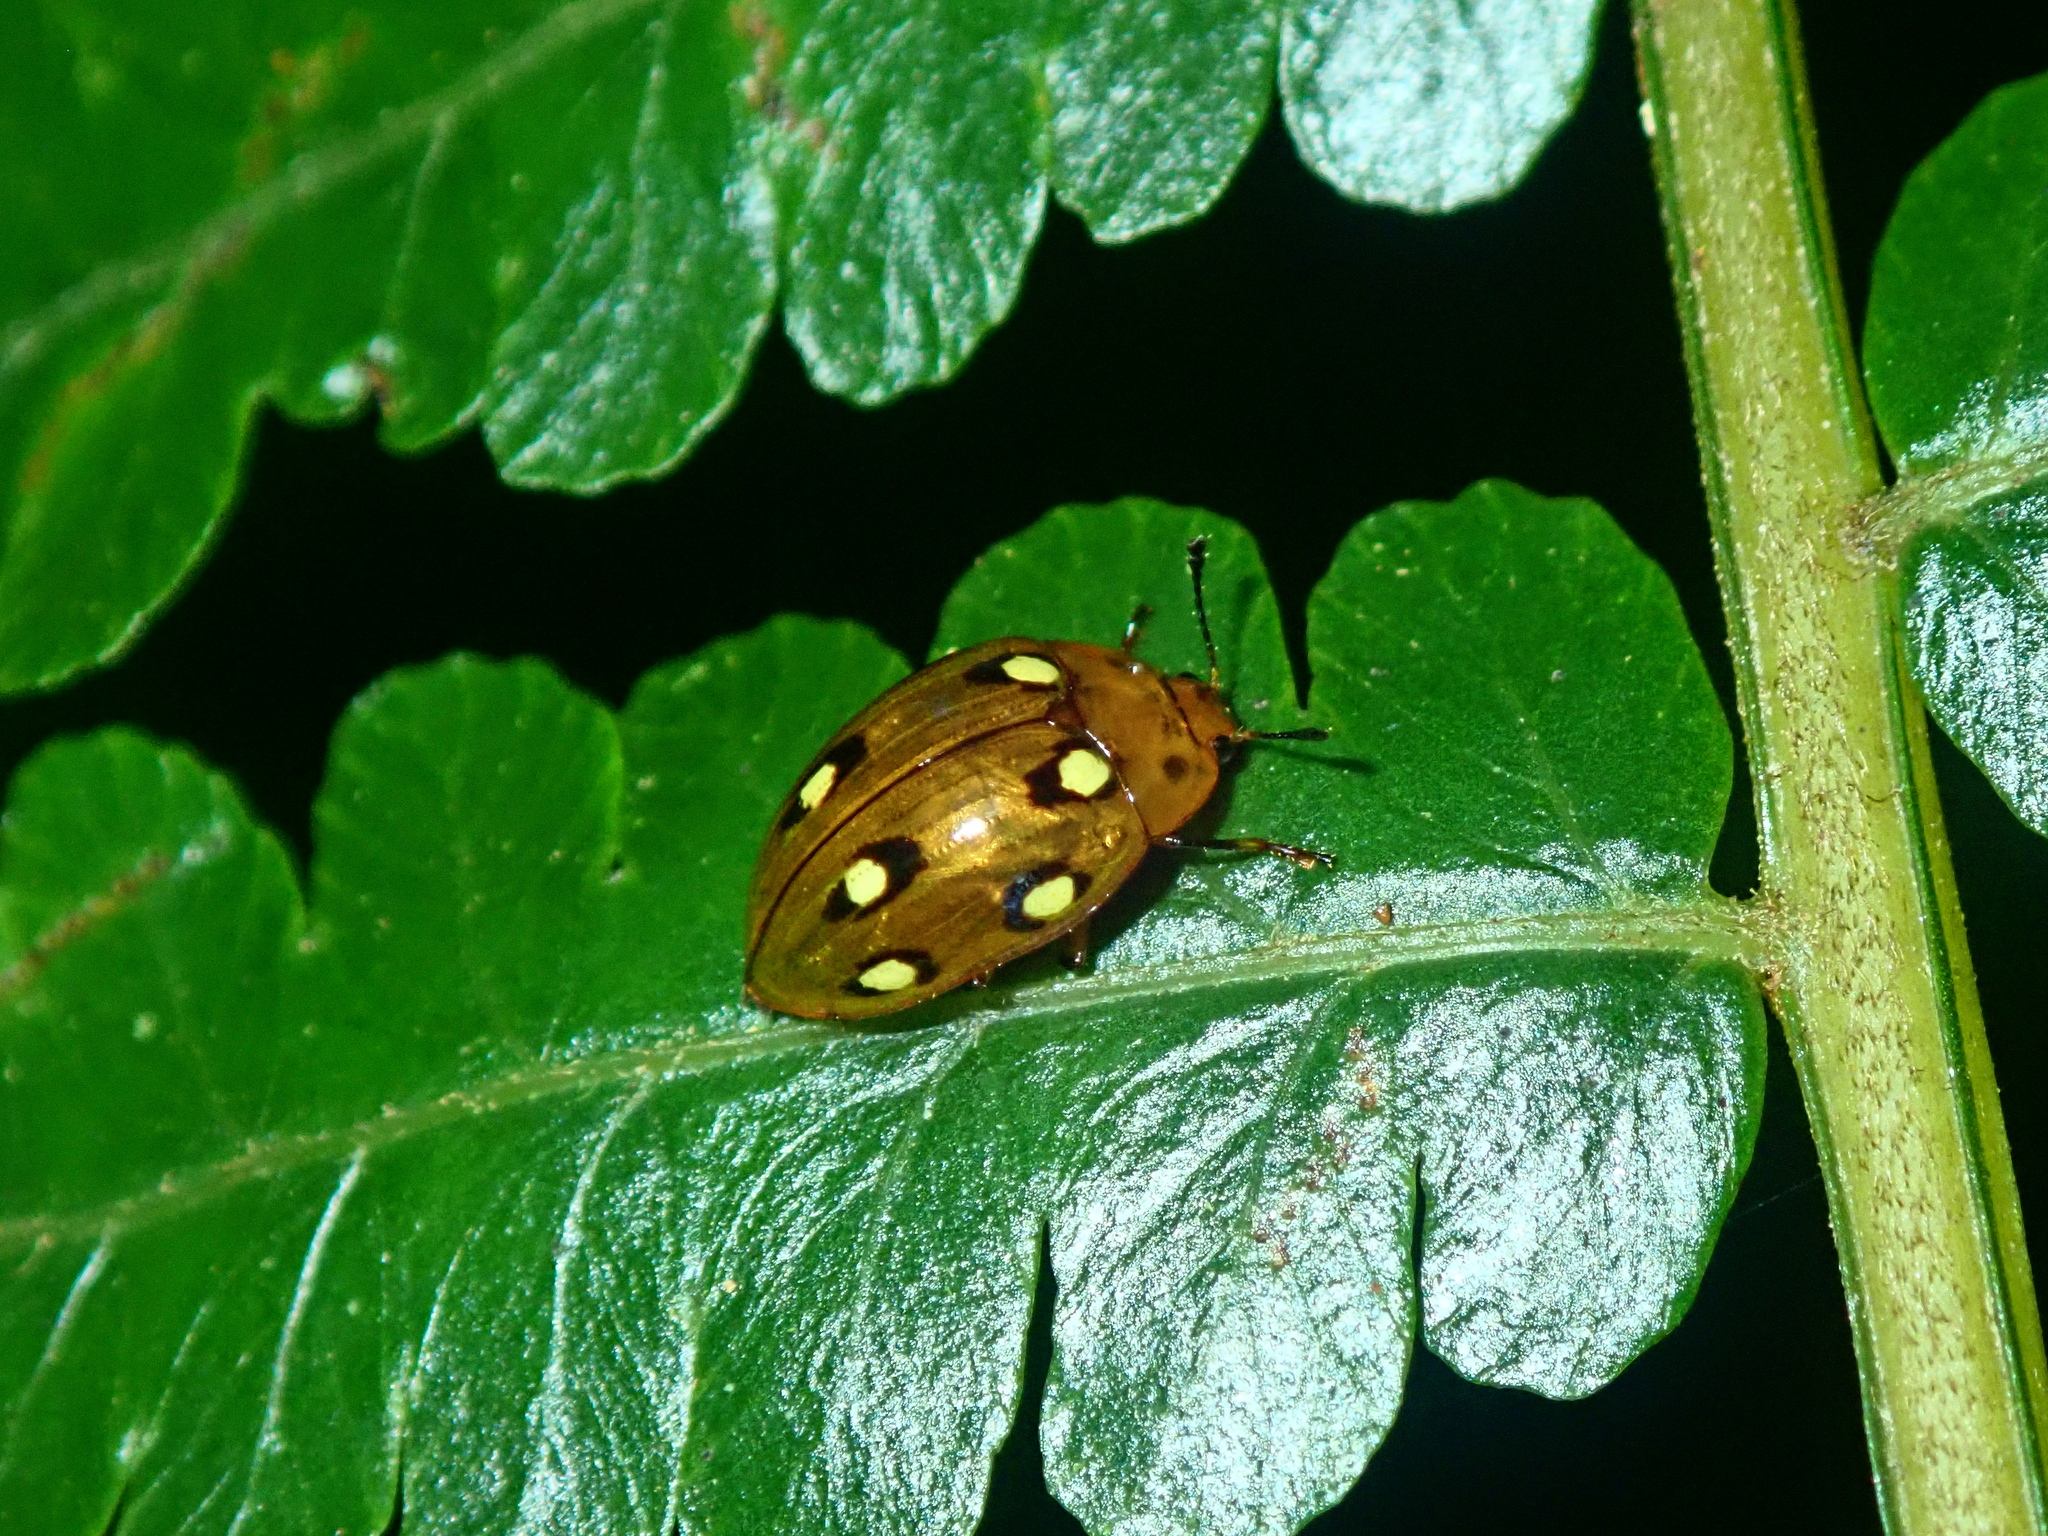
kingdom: Animalia
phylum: Arthropoda
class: Insecta
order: Coleoptera
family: Erotylidae
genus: Iphiclus
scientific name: Iphiclus
